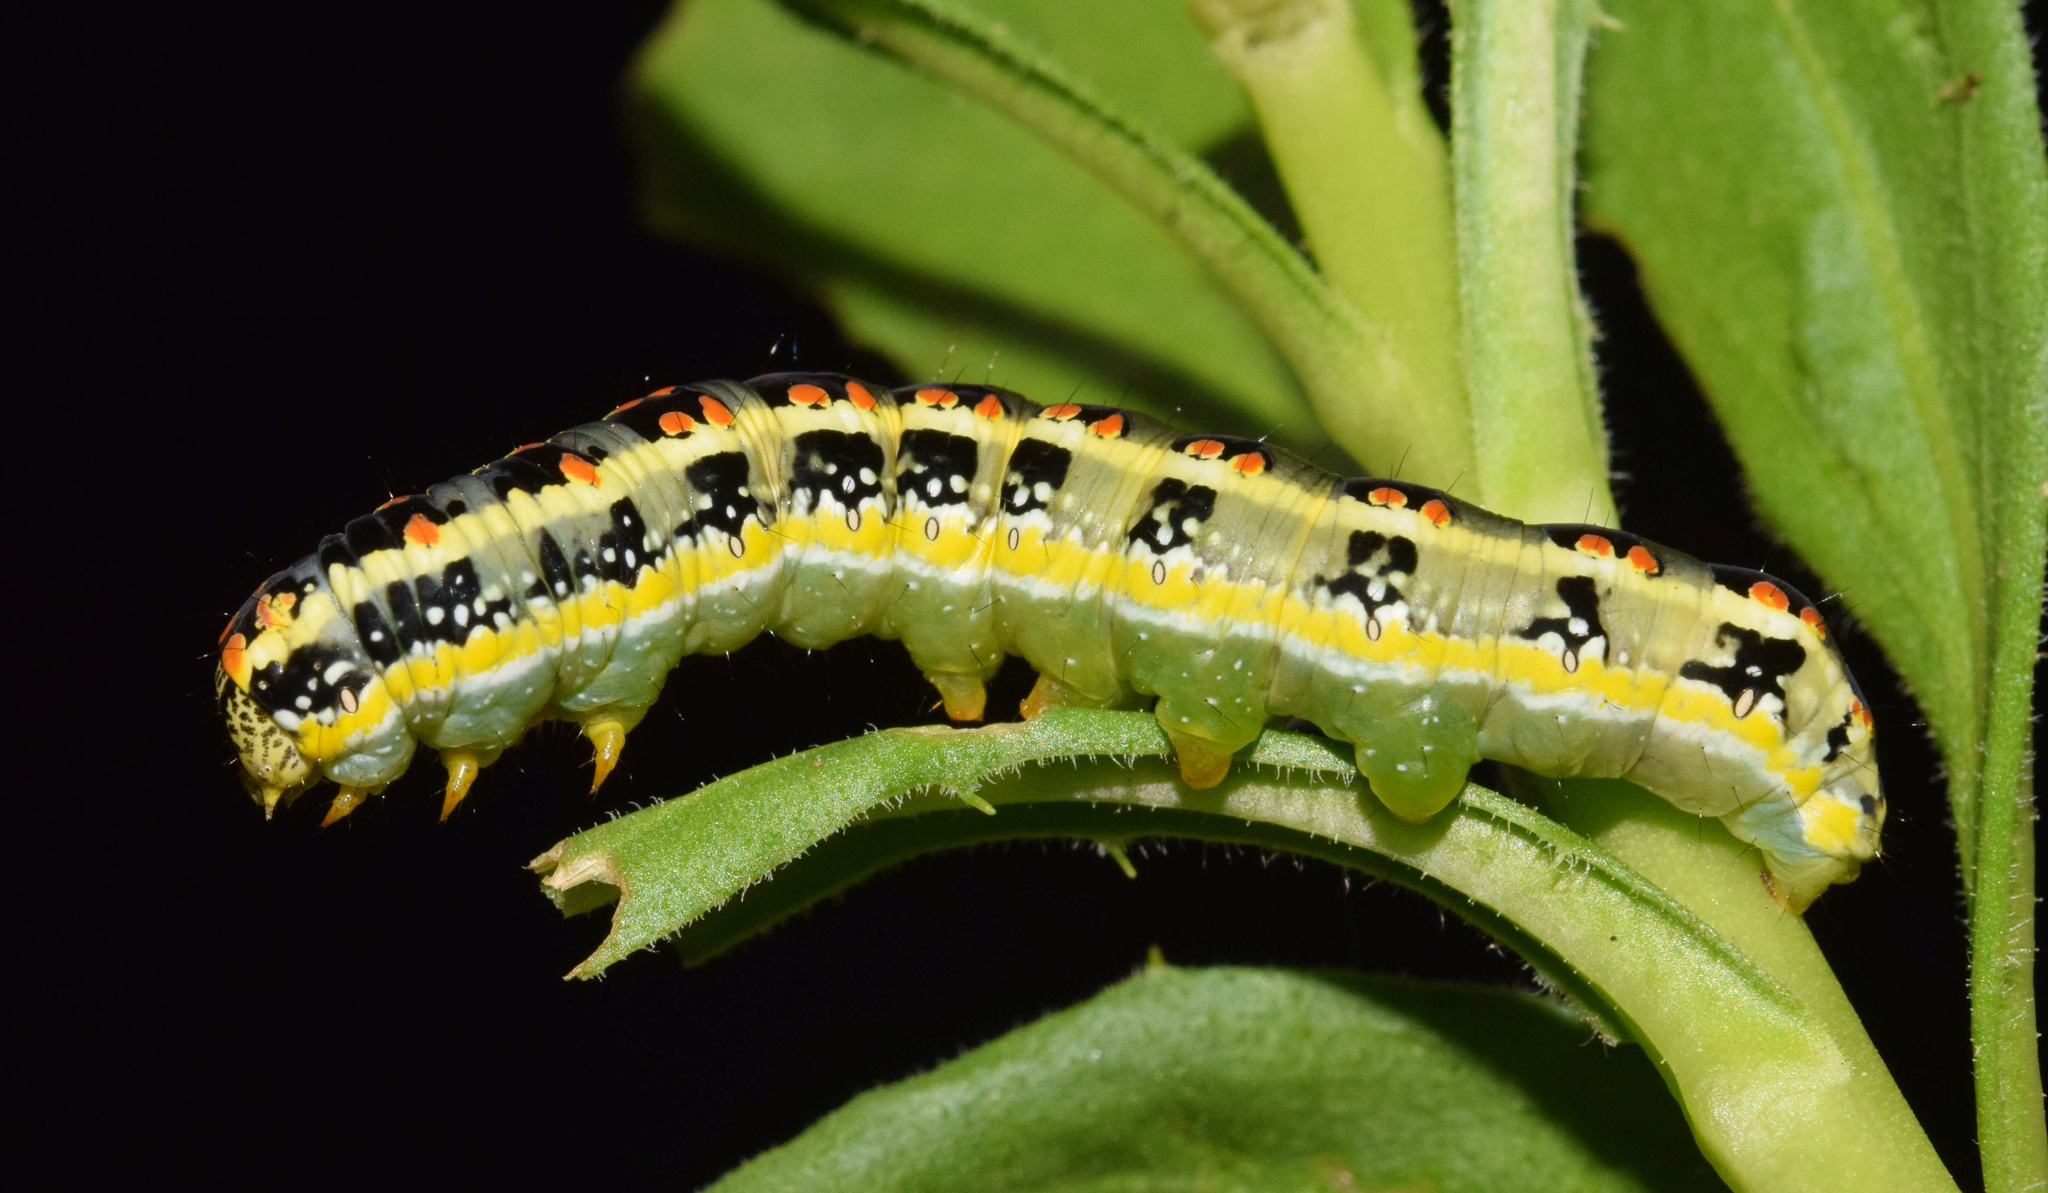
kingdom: Animalia
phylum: Arthropoda
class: Insecta
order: Lepidoptera
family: Noctuidae
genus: Cucullia
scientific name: Cucullia inaequalis
